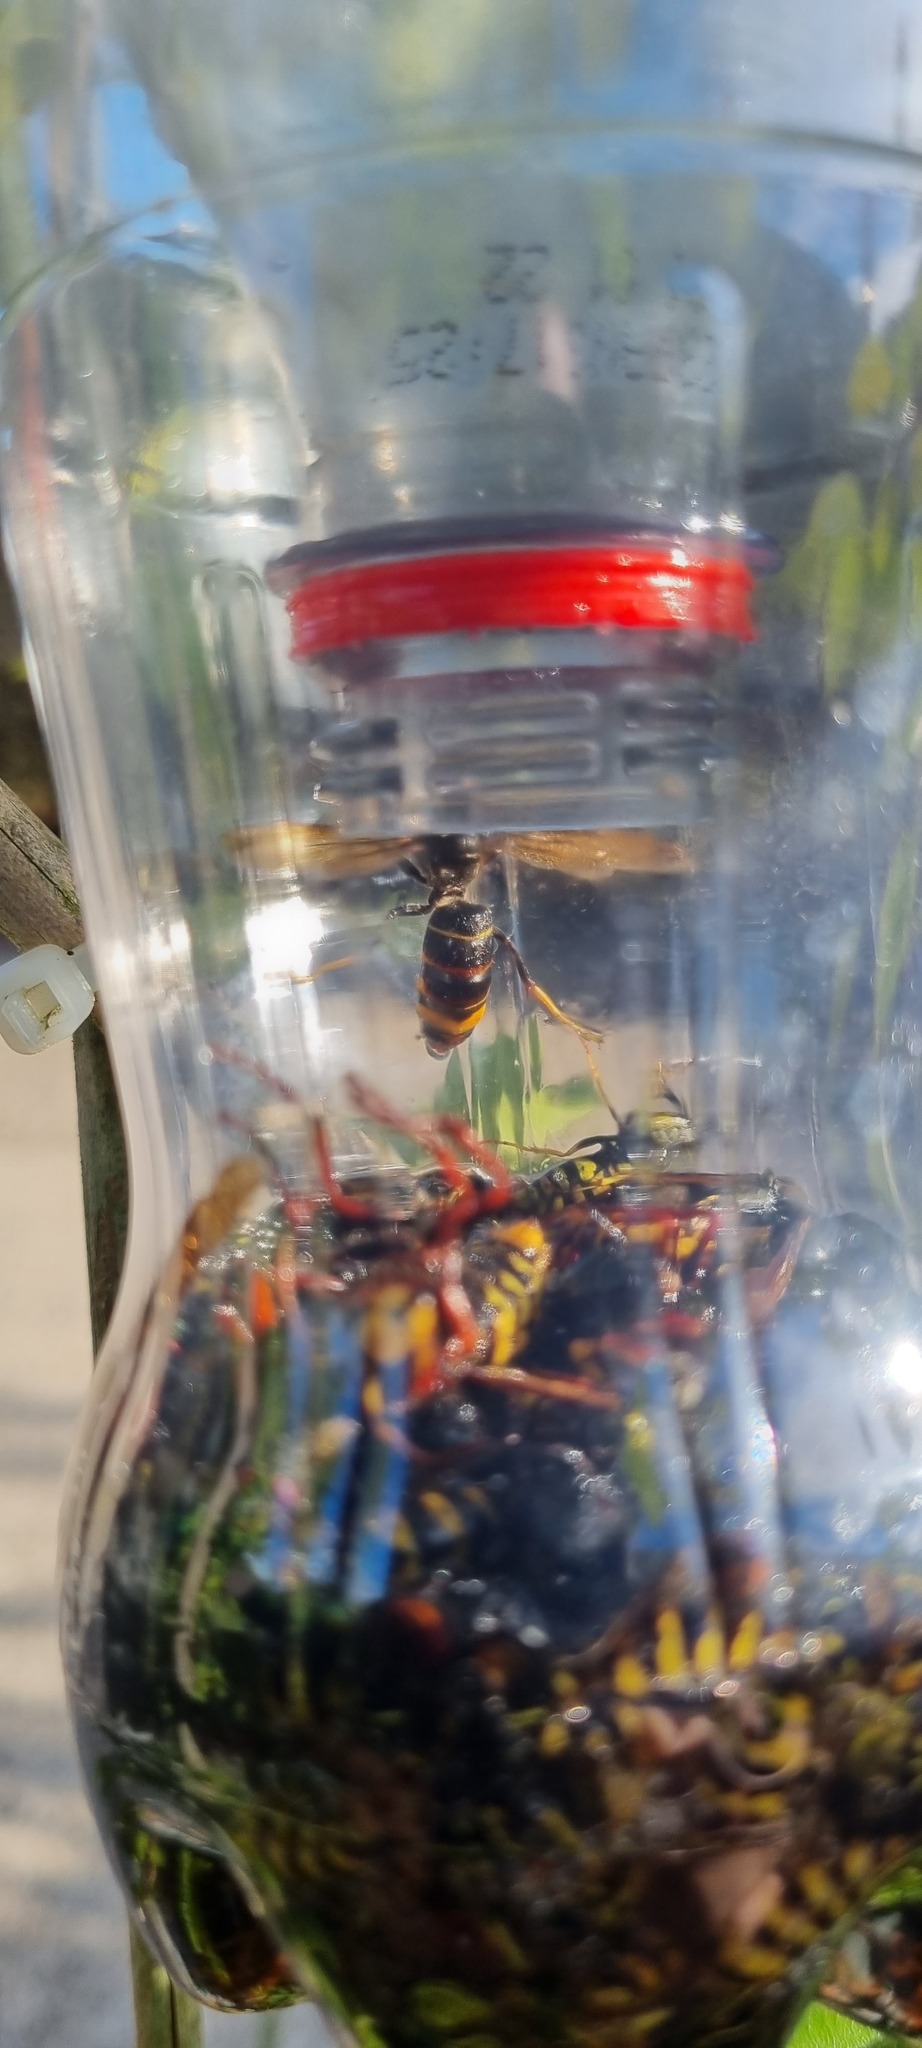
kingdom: Animalia
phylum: Arthropoda
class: Insecta
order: Hymenoptera
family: Vespidae
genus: Vespa
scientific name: Vespa velutina
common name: Asian hornet
